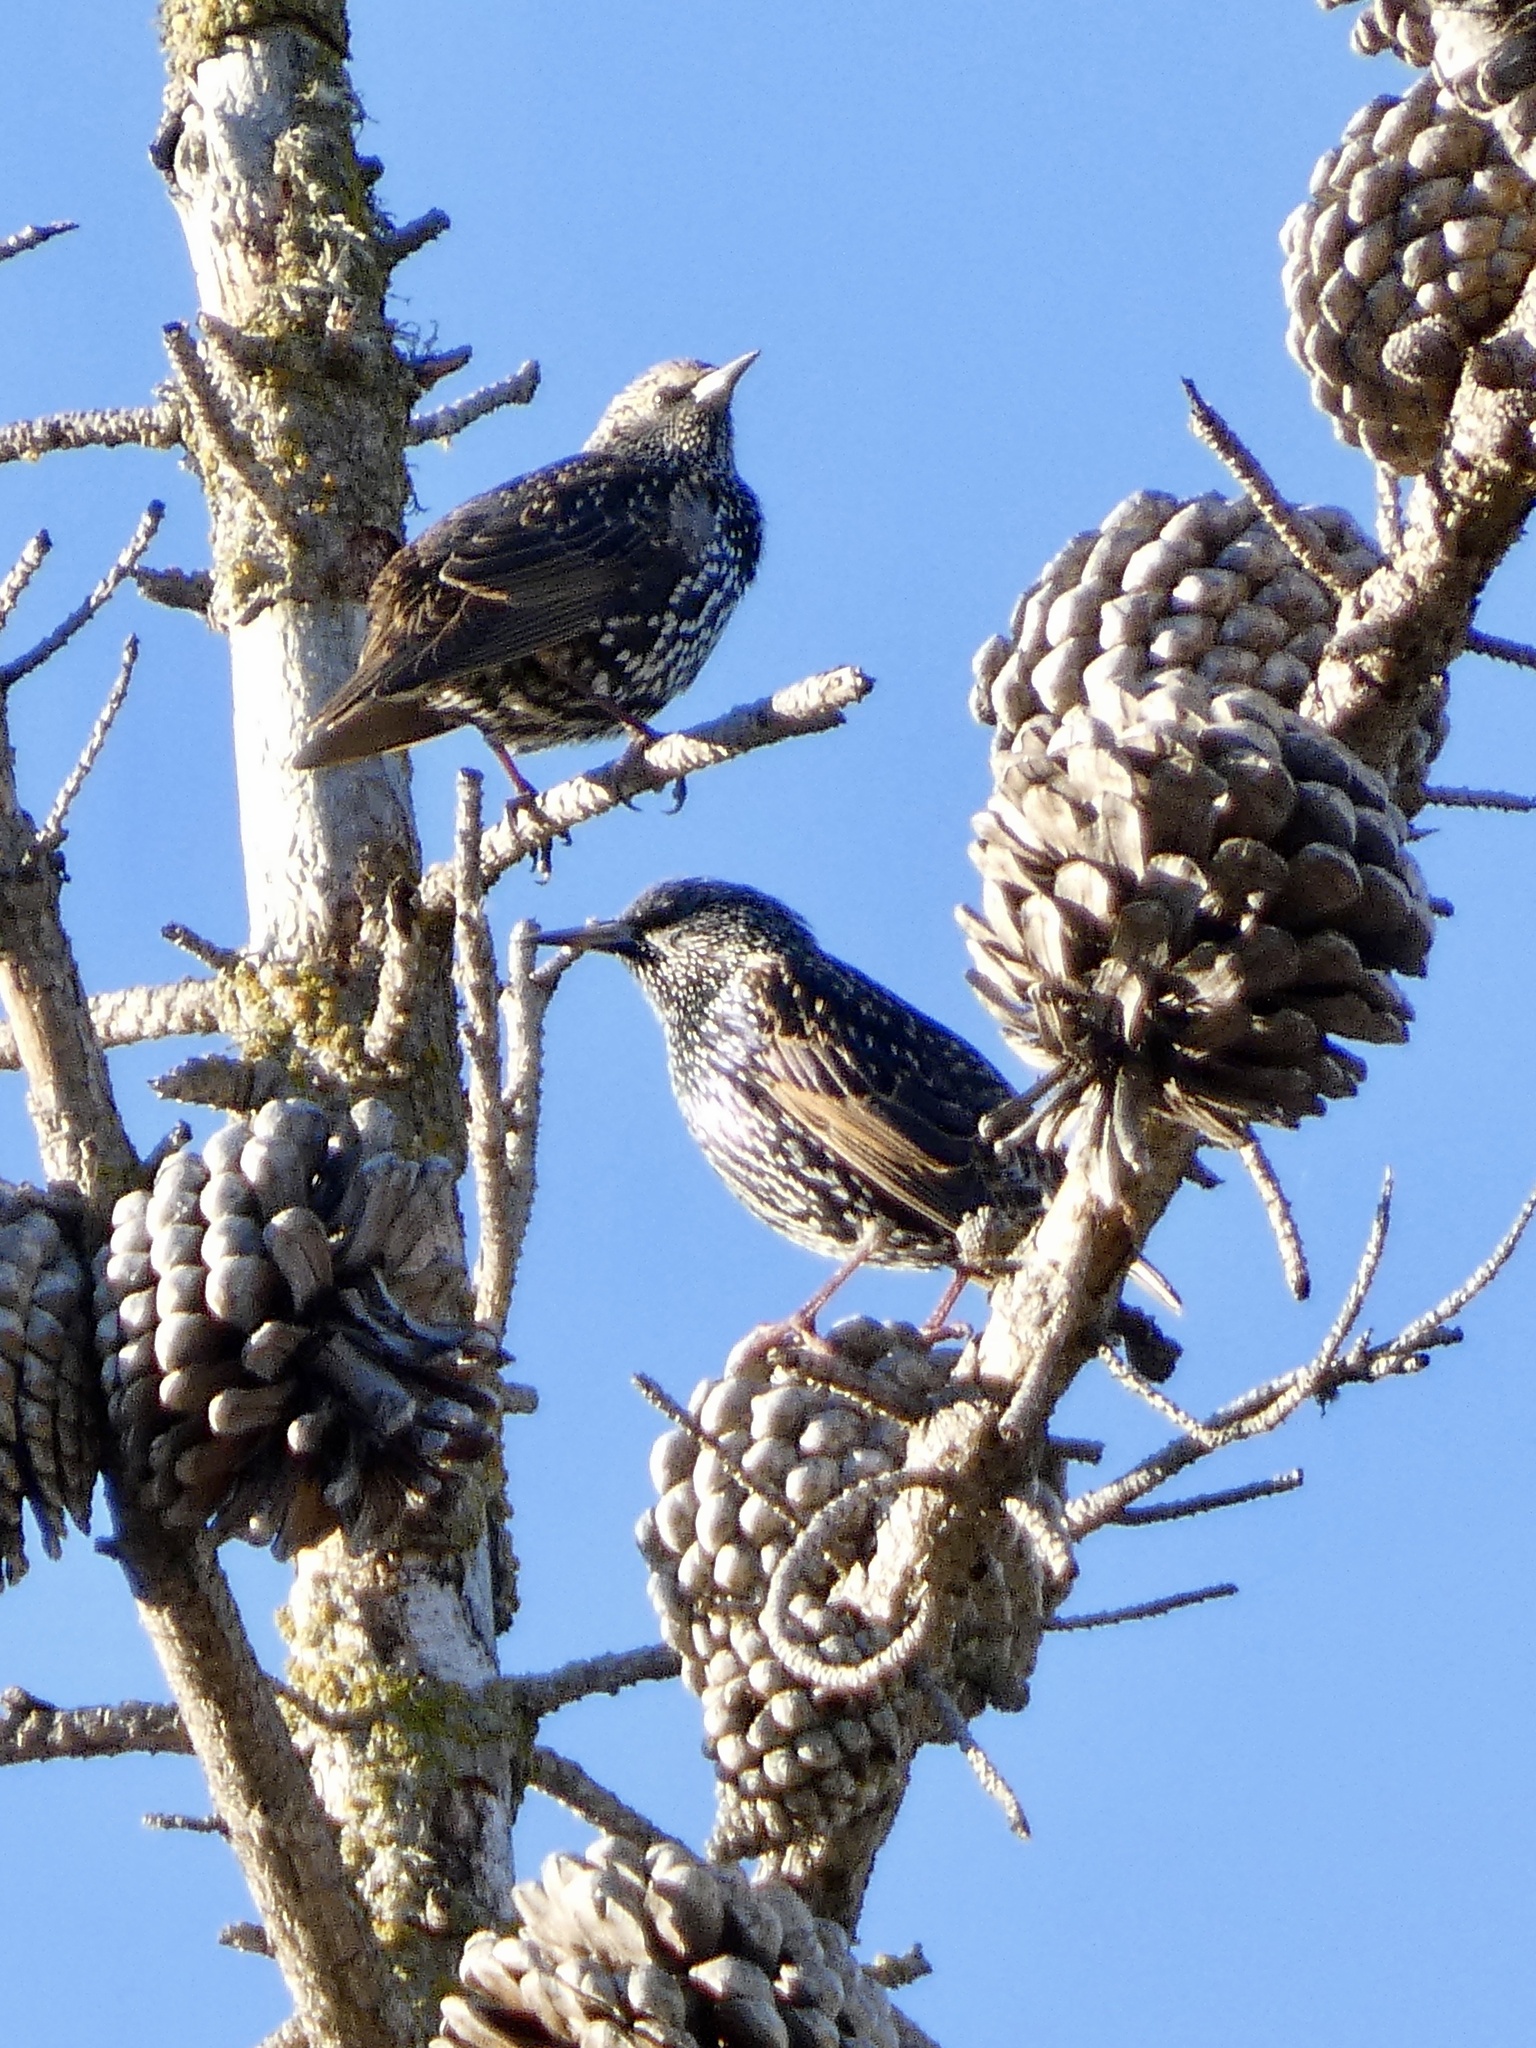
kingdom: Animalia
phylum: Chordata
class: Aves
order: Passeriformes
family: Sturnidae
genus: Sturnus
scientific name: Sturnus vulgaris
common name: Common starling
